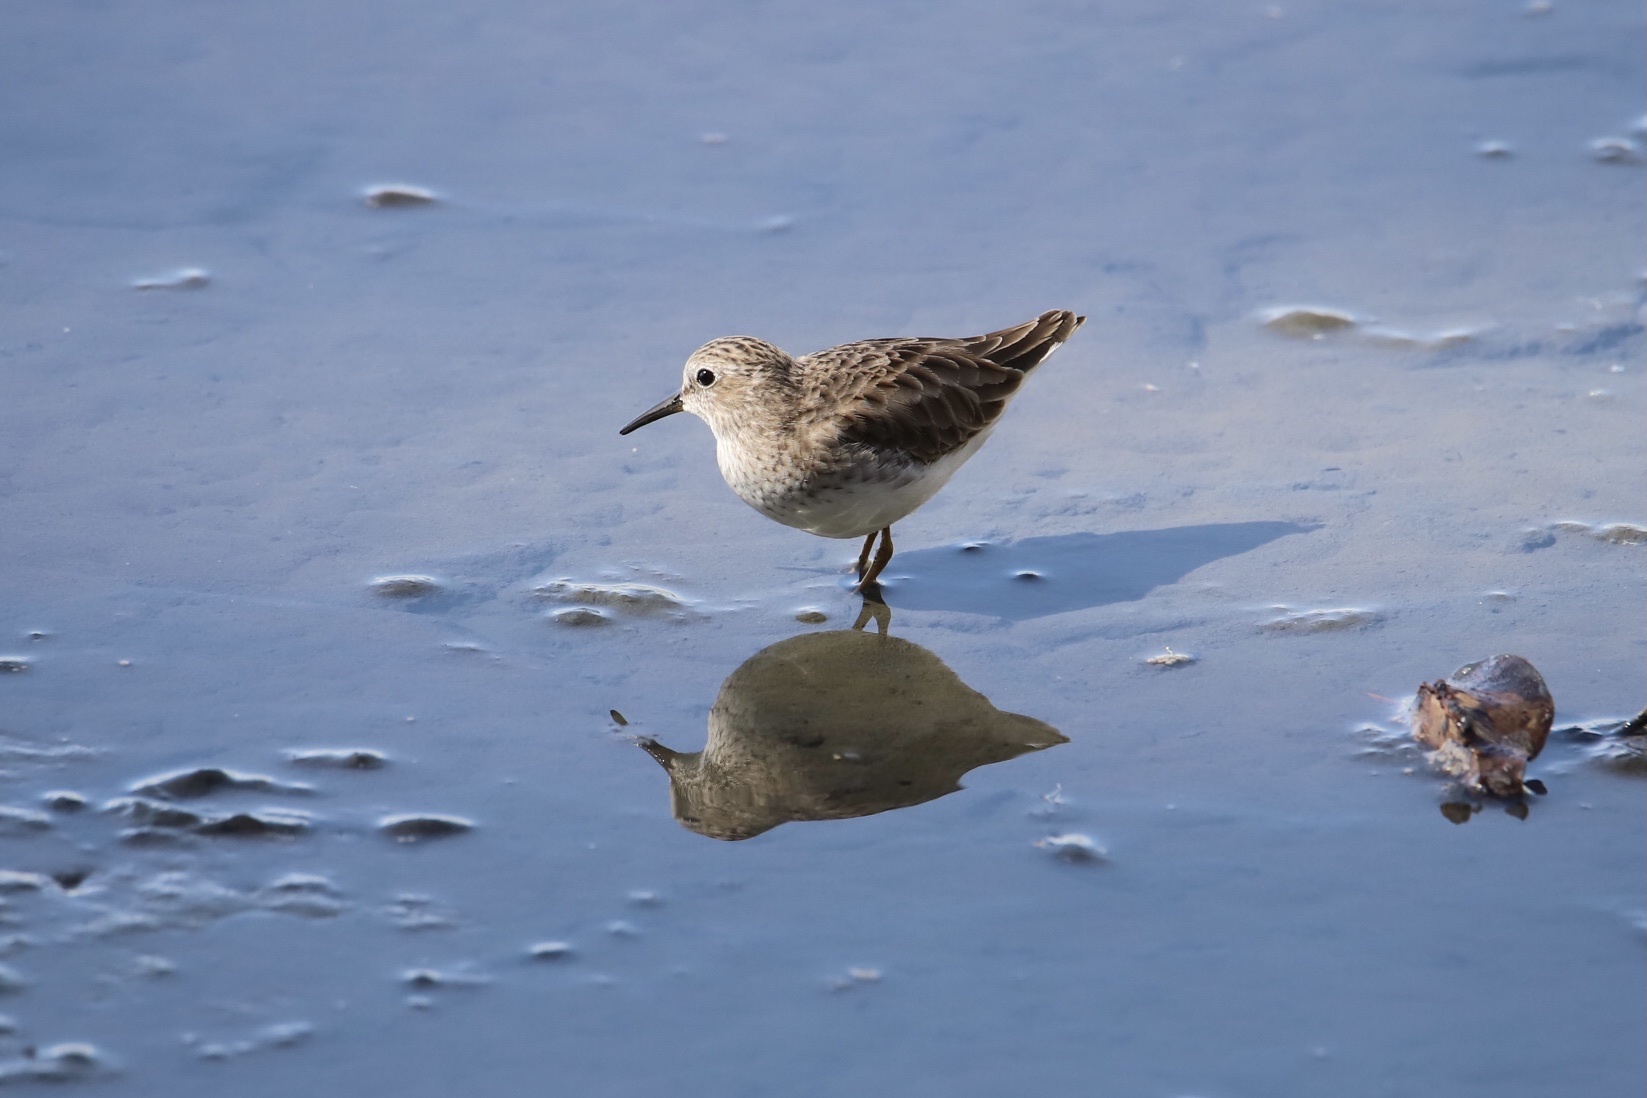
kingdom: Animalia
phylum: Chordata
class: Aves
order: Charadriiformes
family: Scolopacidae
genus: Calidris
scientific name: Calidris minutilla
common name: Least sandpiper
